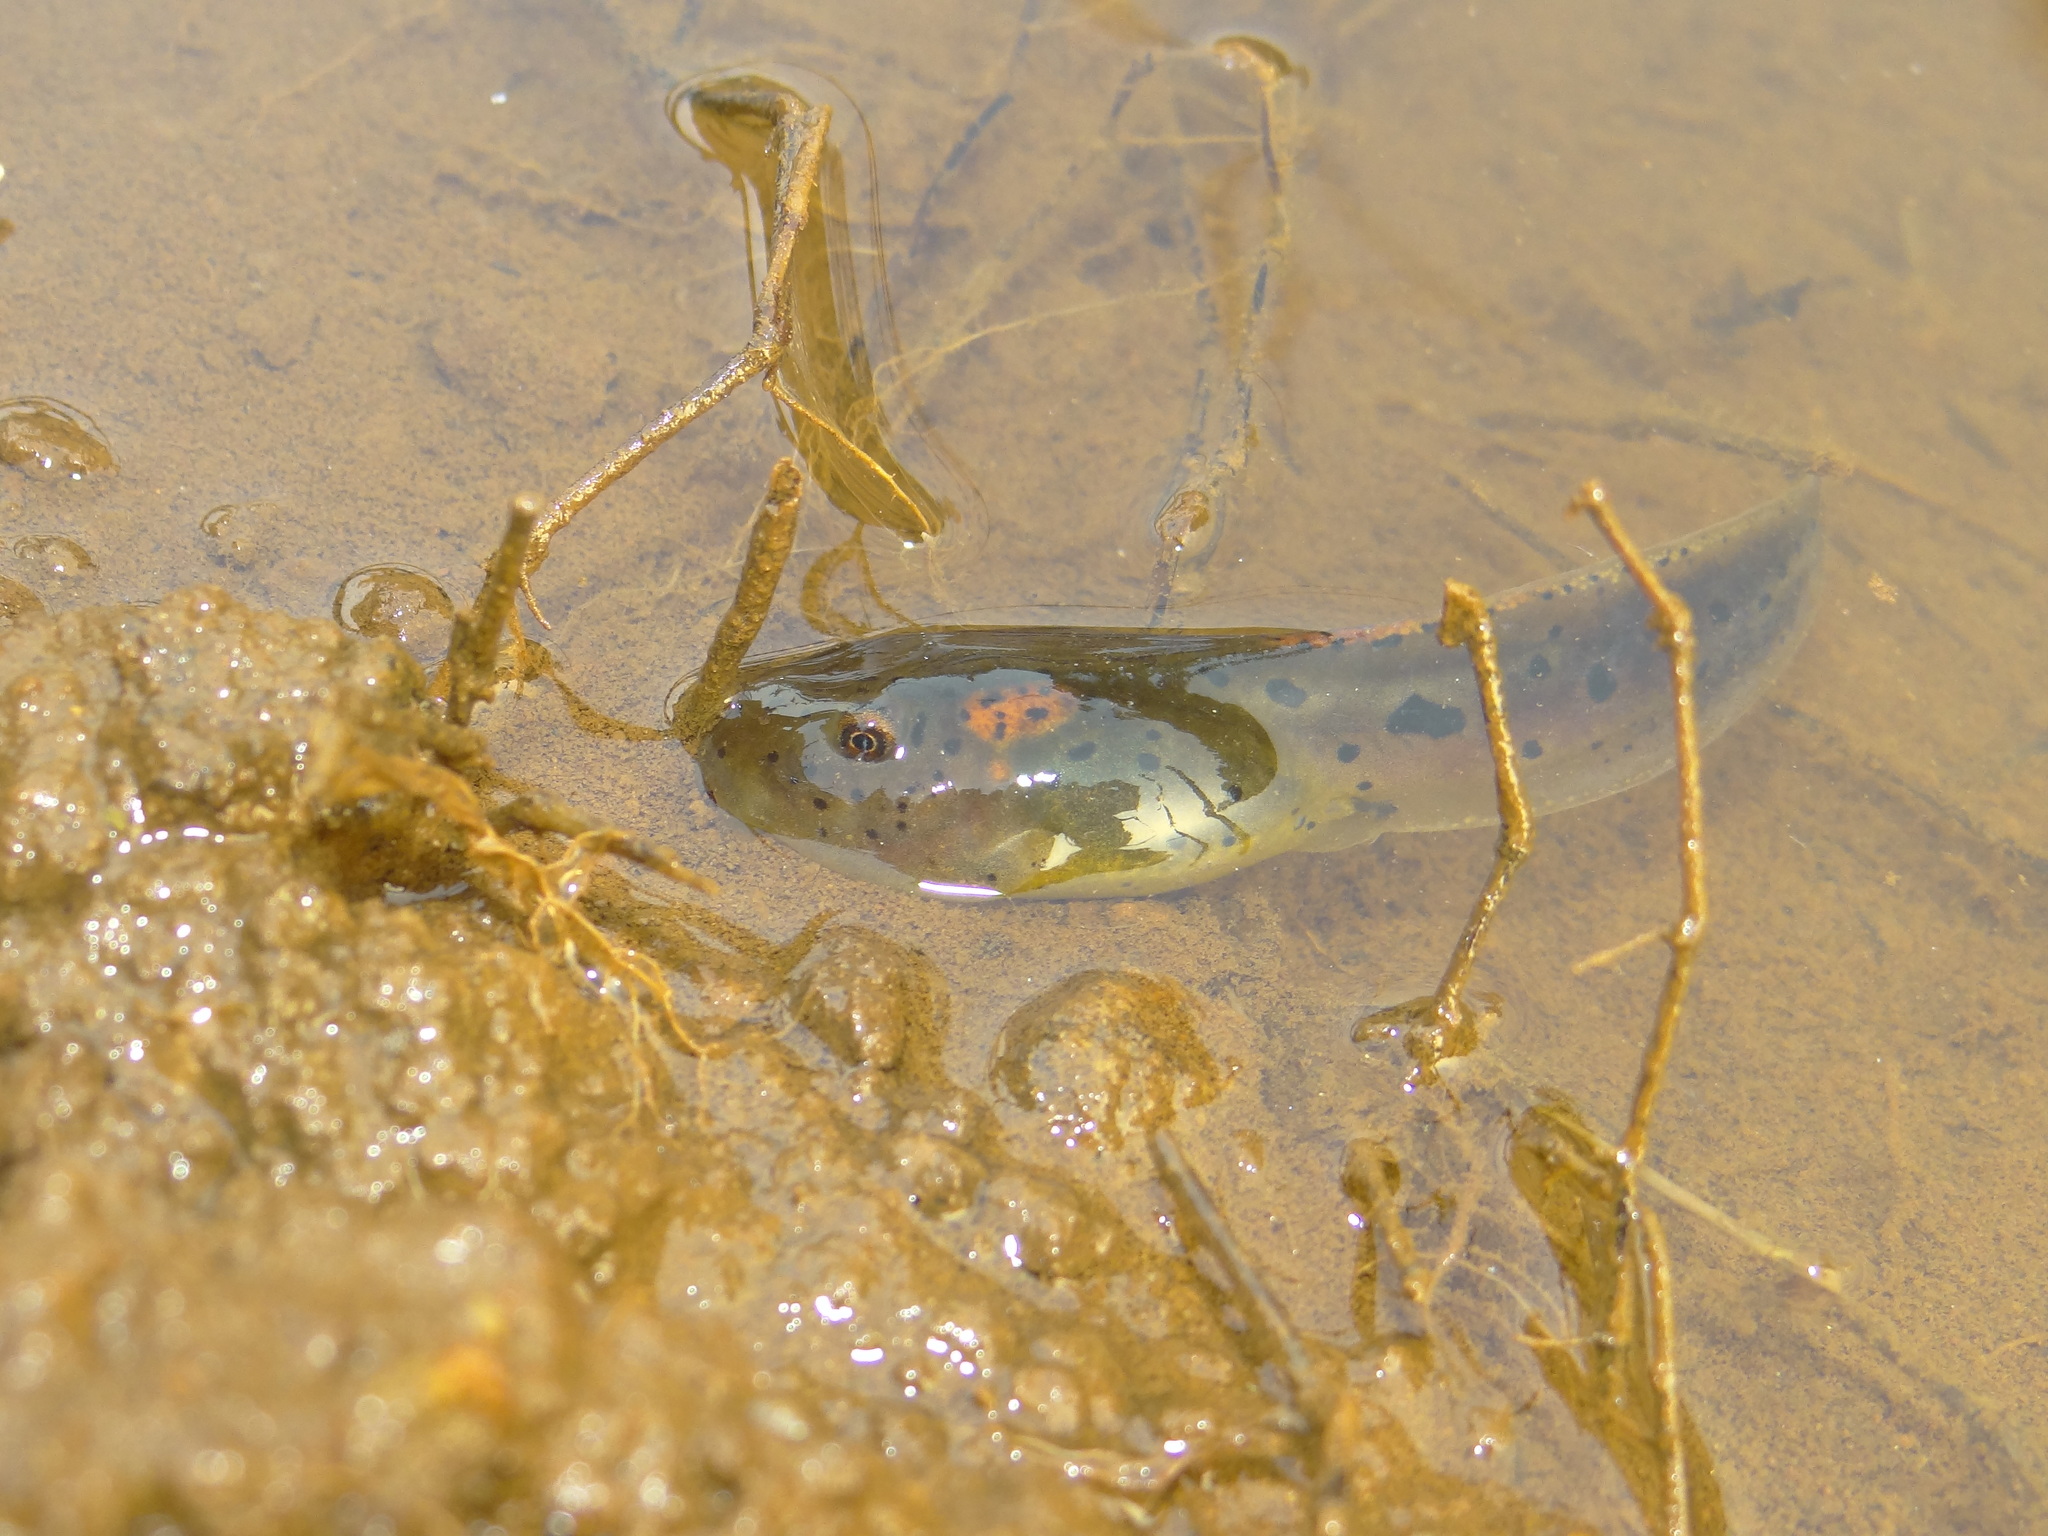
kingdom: Animalia
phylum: Chordata
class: Amphibia
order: Anura
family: Ranidae
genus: Clinotarsus
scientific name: Clinotarsus curtipes
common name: Bicoloured frog
